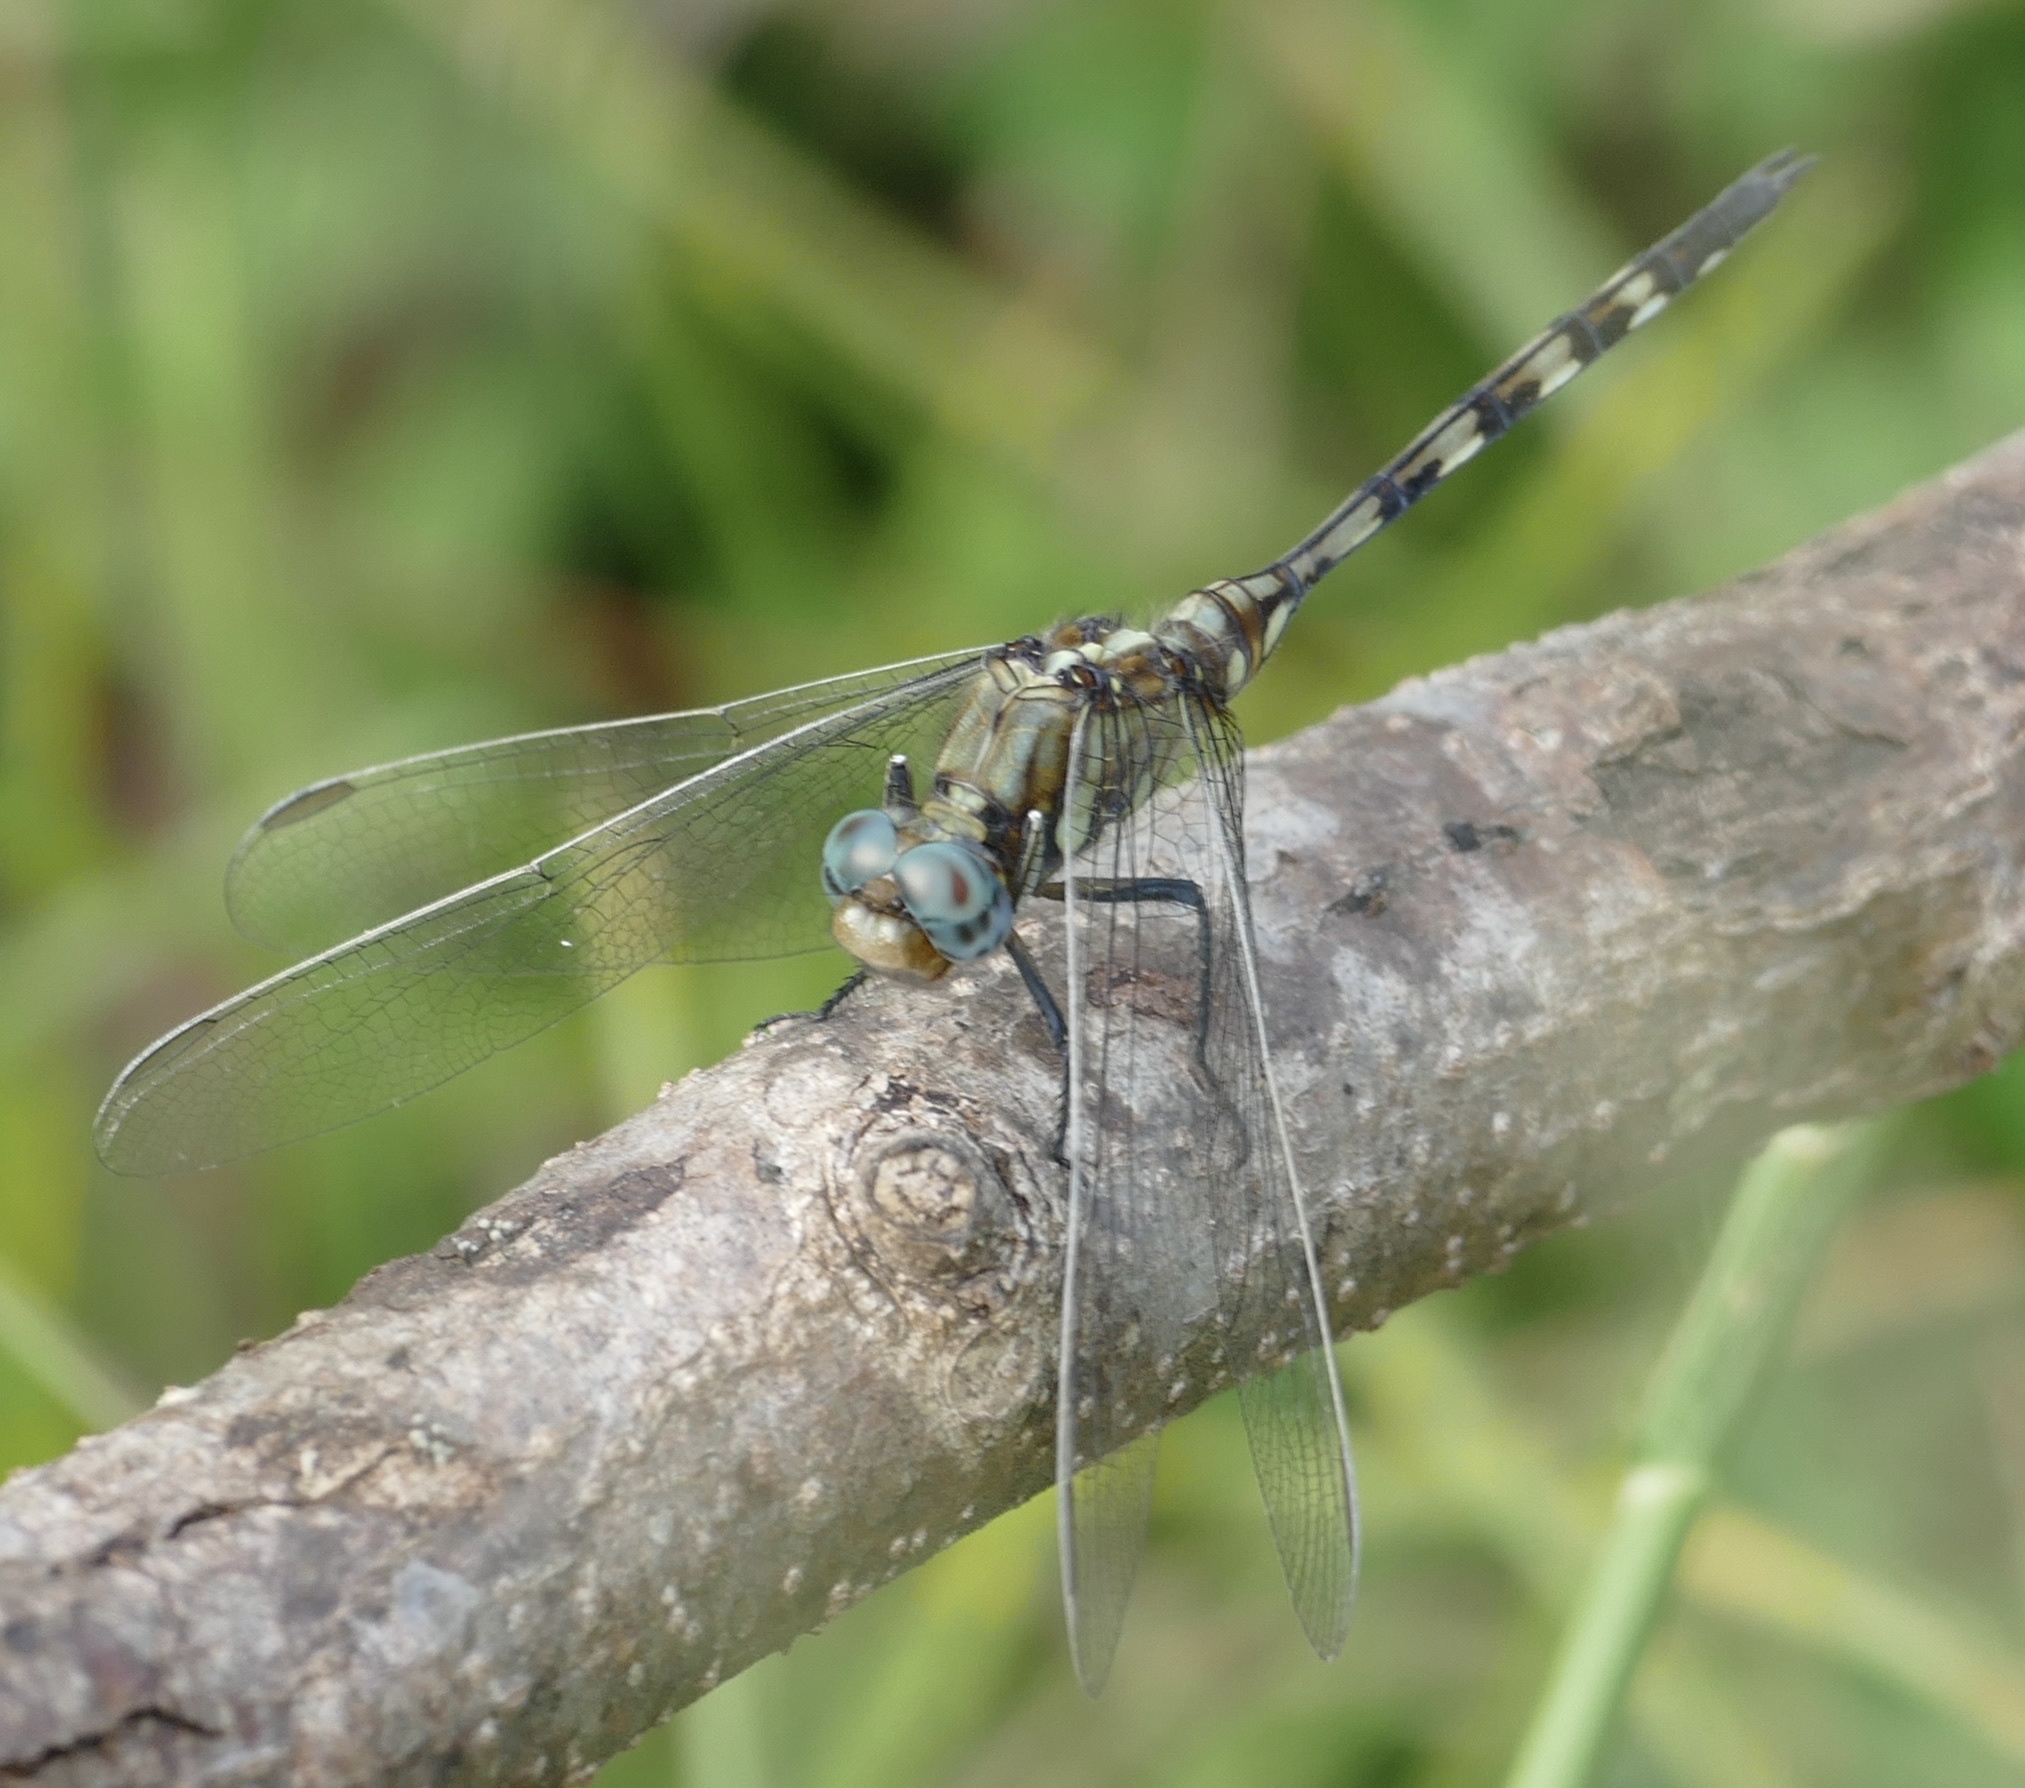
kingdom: Animalia
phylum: Arthropoda
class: Insecta
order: Odonata
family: Libellulidae
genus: Orthetrum
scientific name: Orthetrum brachiale
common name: Banded skimmer
